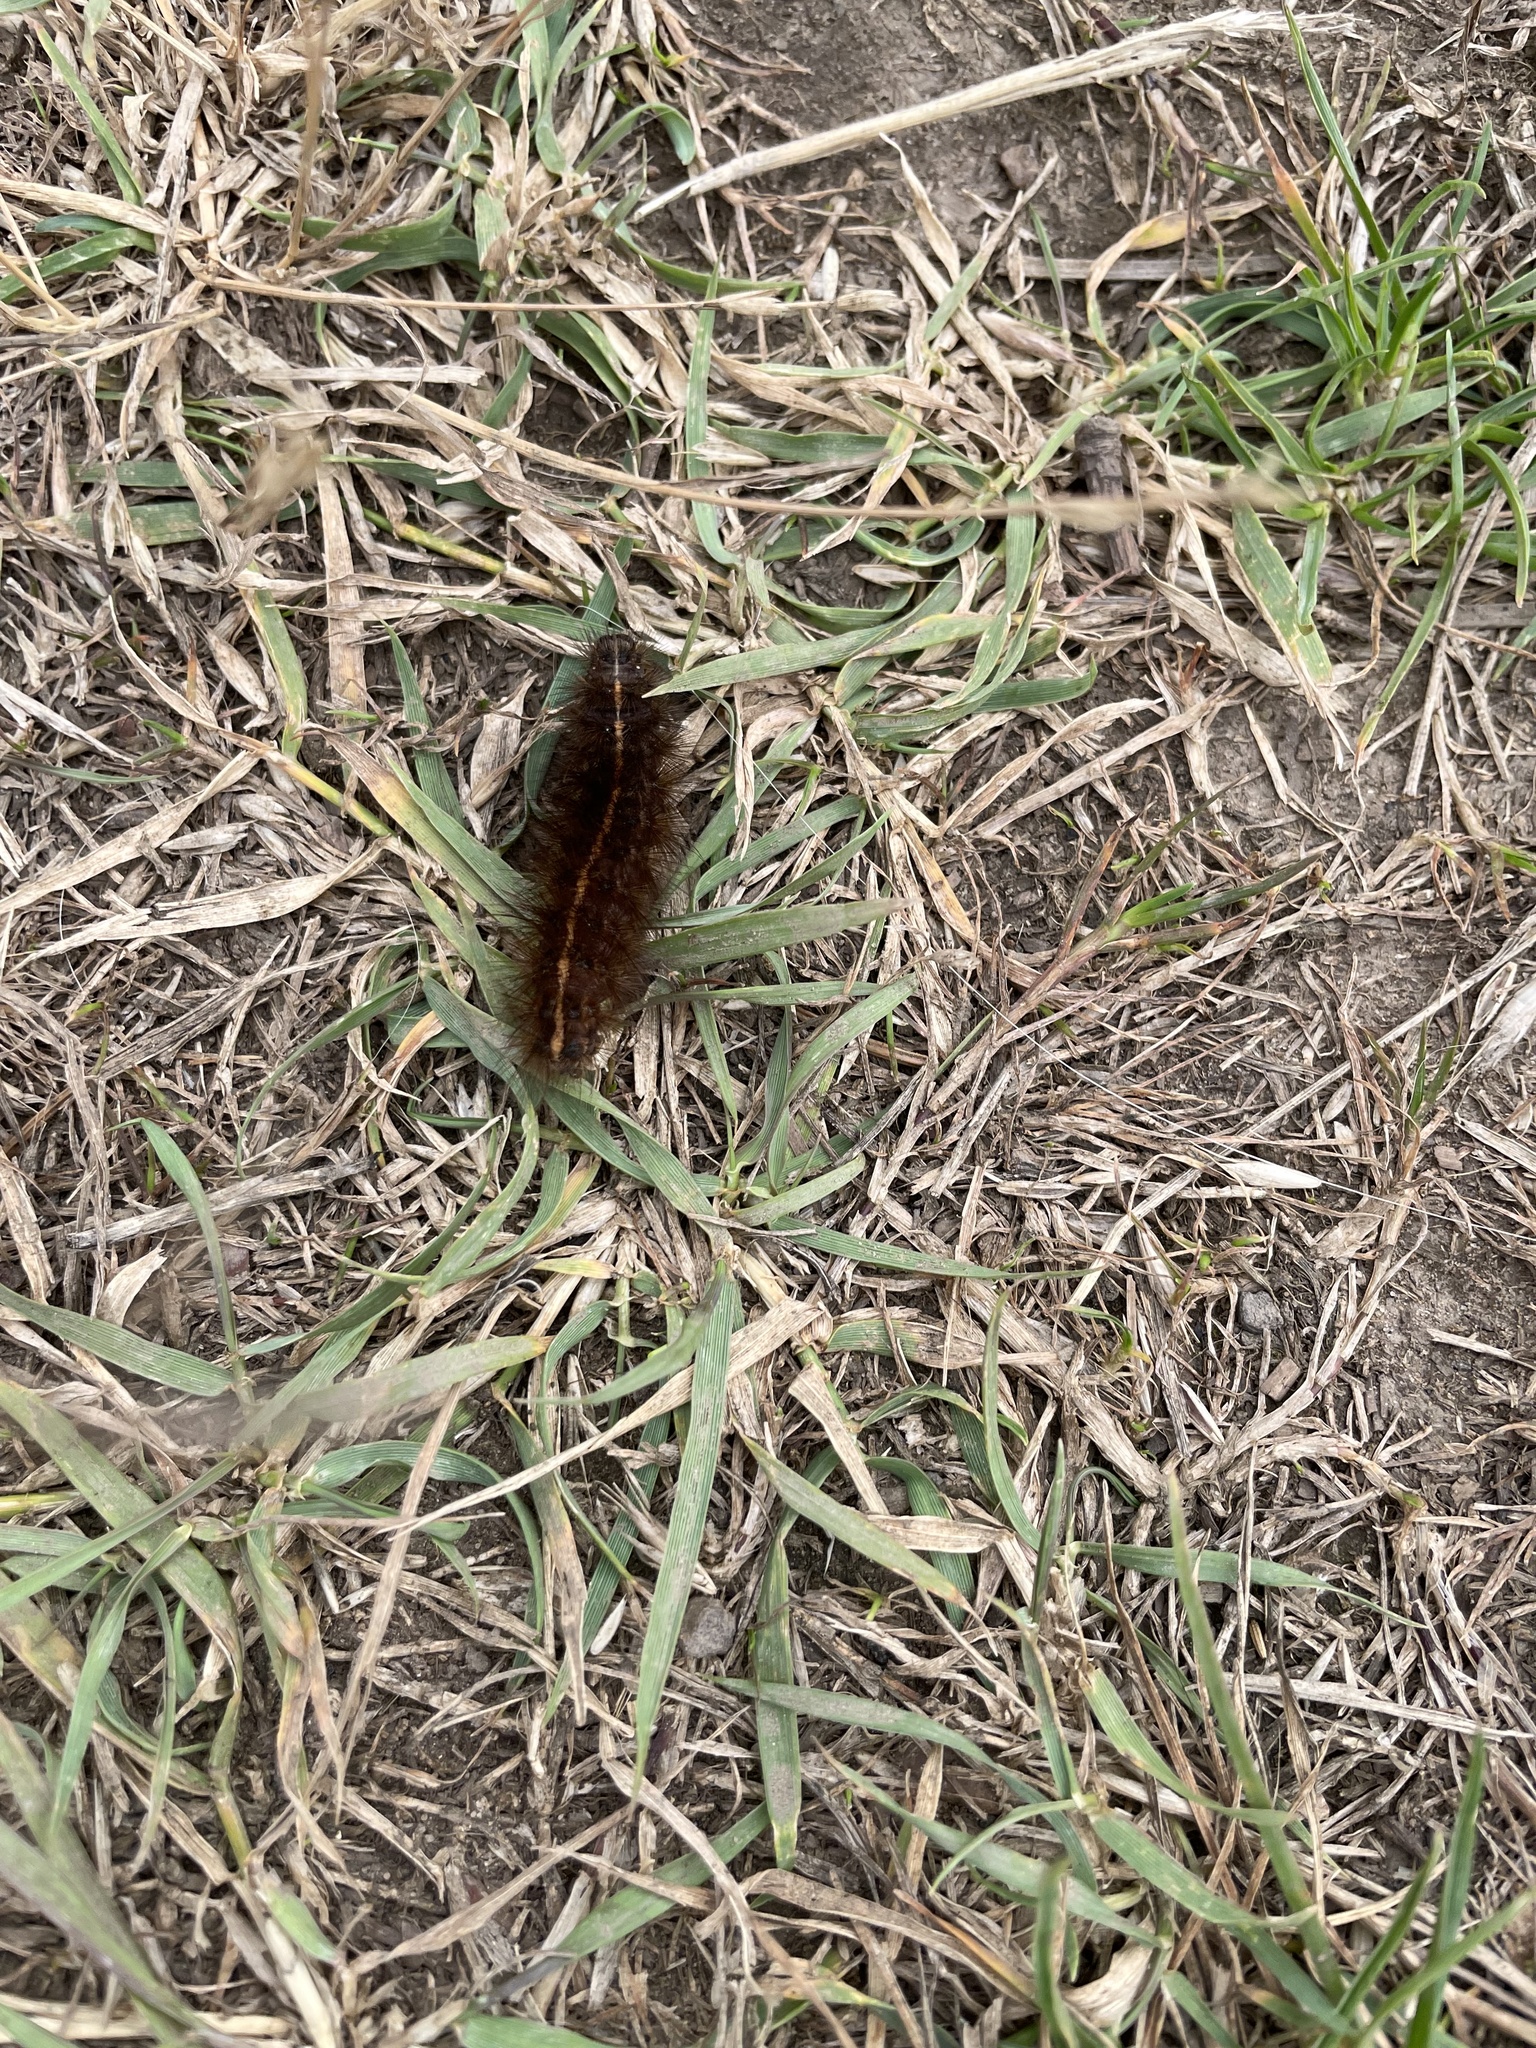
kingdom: Animalia
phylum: Arthropoda
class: Insecta
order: Lepidoptera
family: Erebidae
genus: Spilosoma
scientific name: Spilosoma lubricipeda
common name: White ermine
